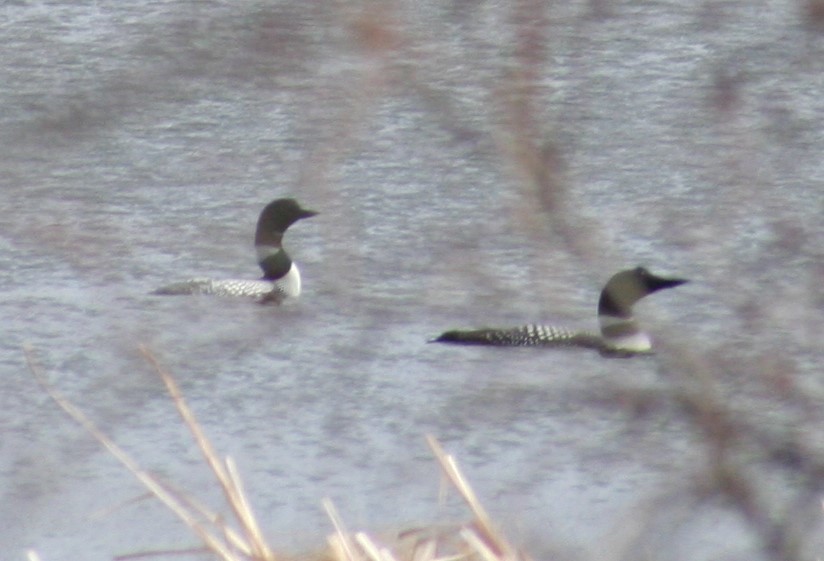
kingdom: Animalia
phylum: Chordata
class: Aves
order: Gaviiformes
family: Gaviidae
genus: Gavia
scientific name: Gavia immer
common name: Common loon
